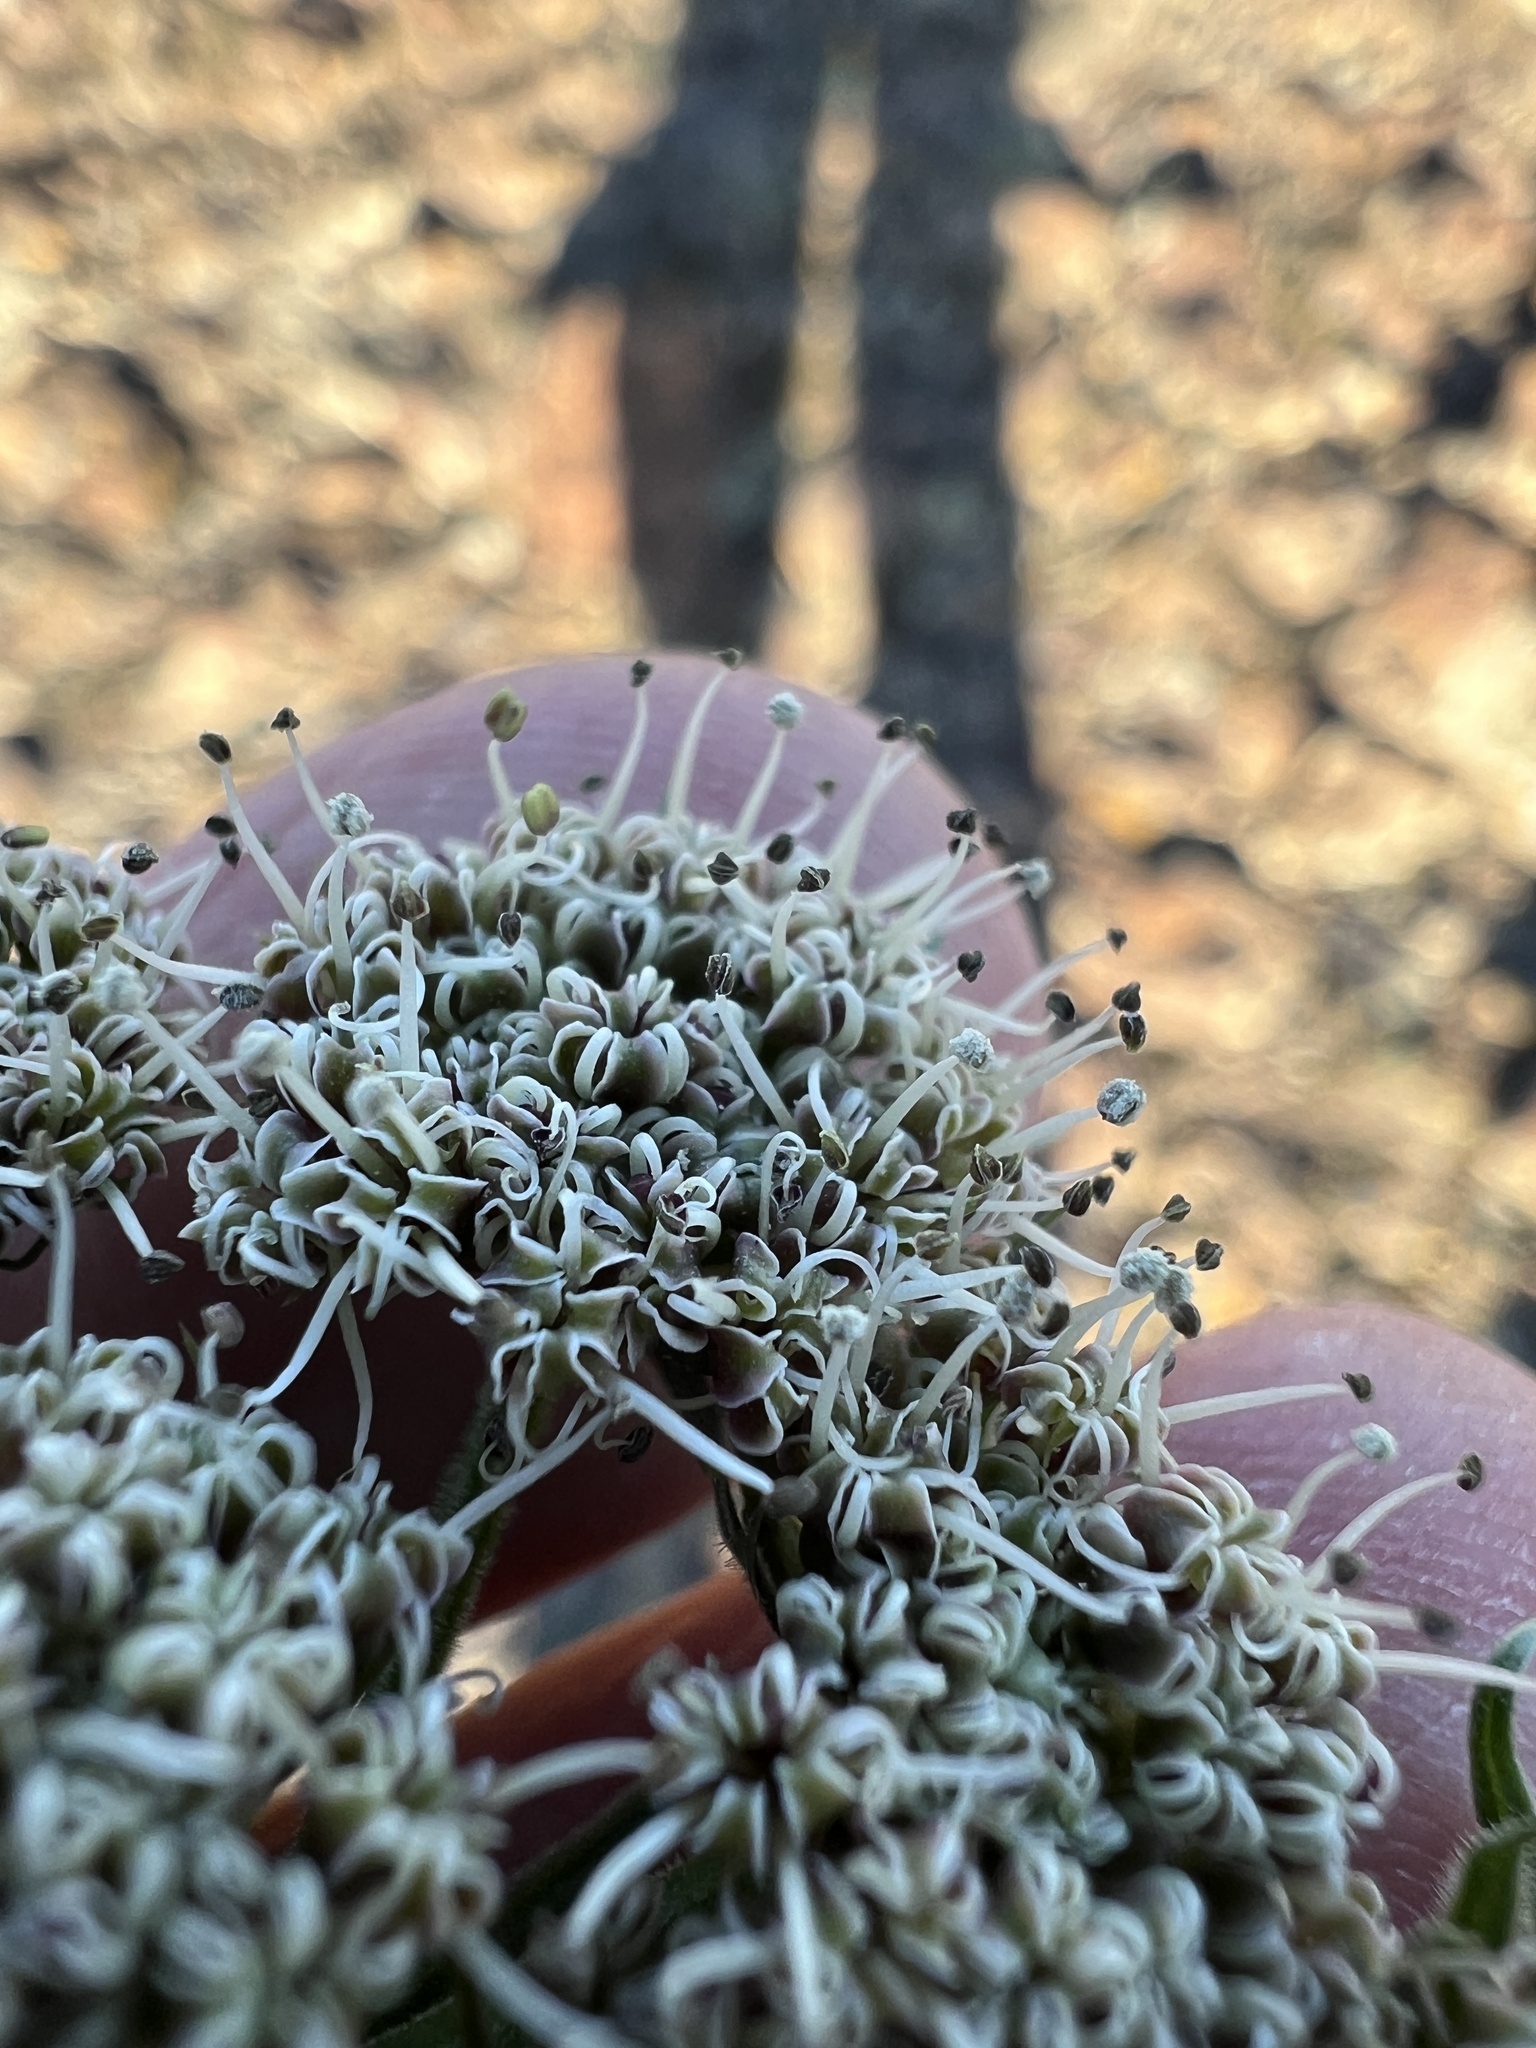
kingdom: Plantae
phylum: Tracheophyta
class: Magnoliopsida
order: Apiales
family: Apiaceae
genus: Lomatium
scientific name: Lomatium macrocarpum
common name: Big-seed biscuitroot
